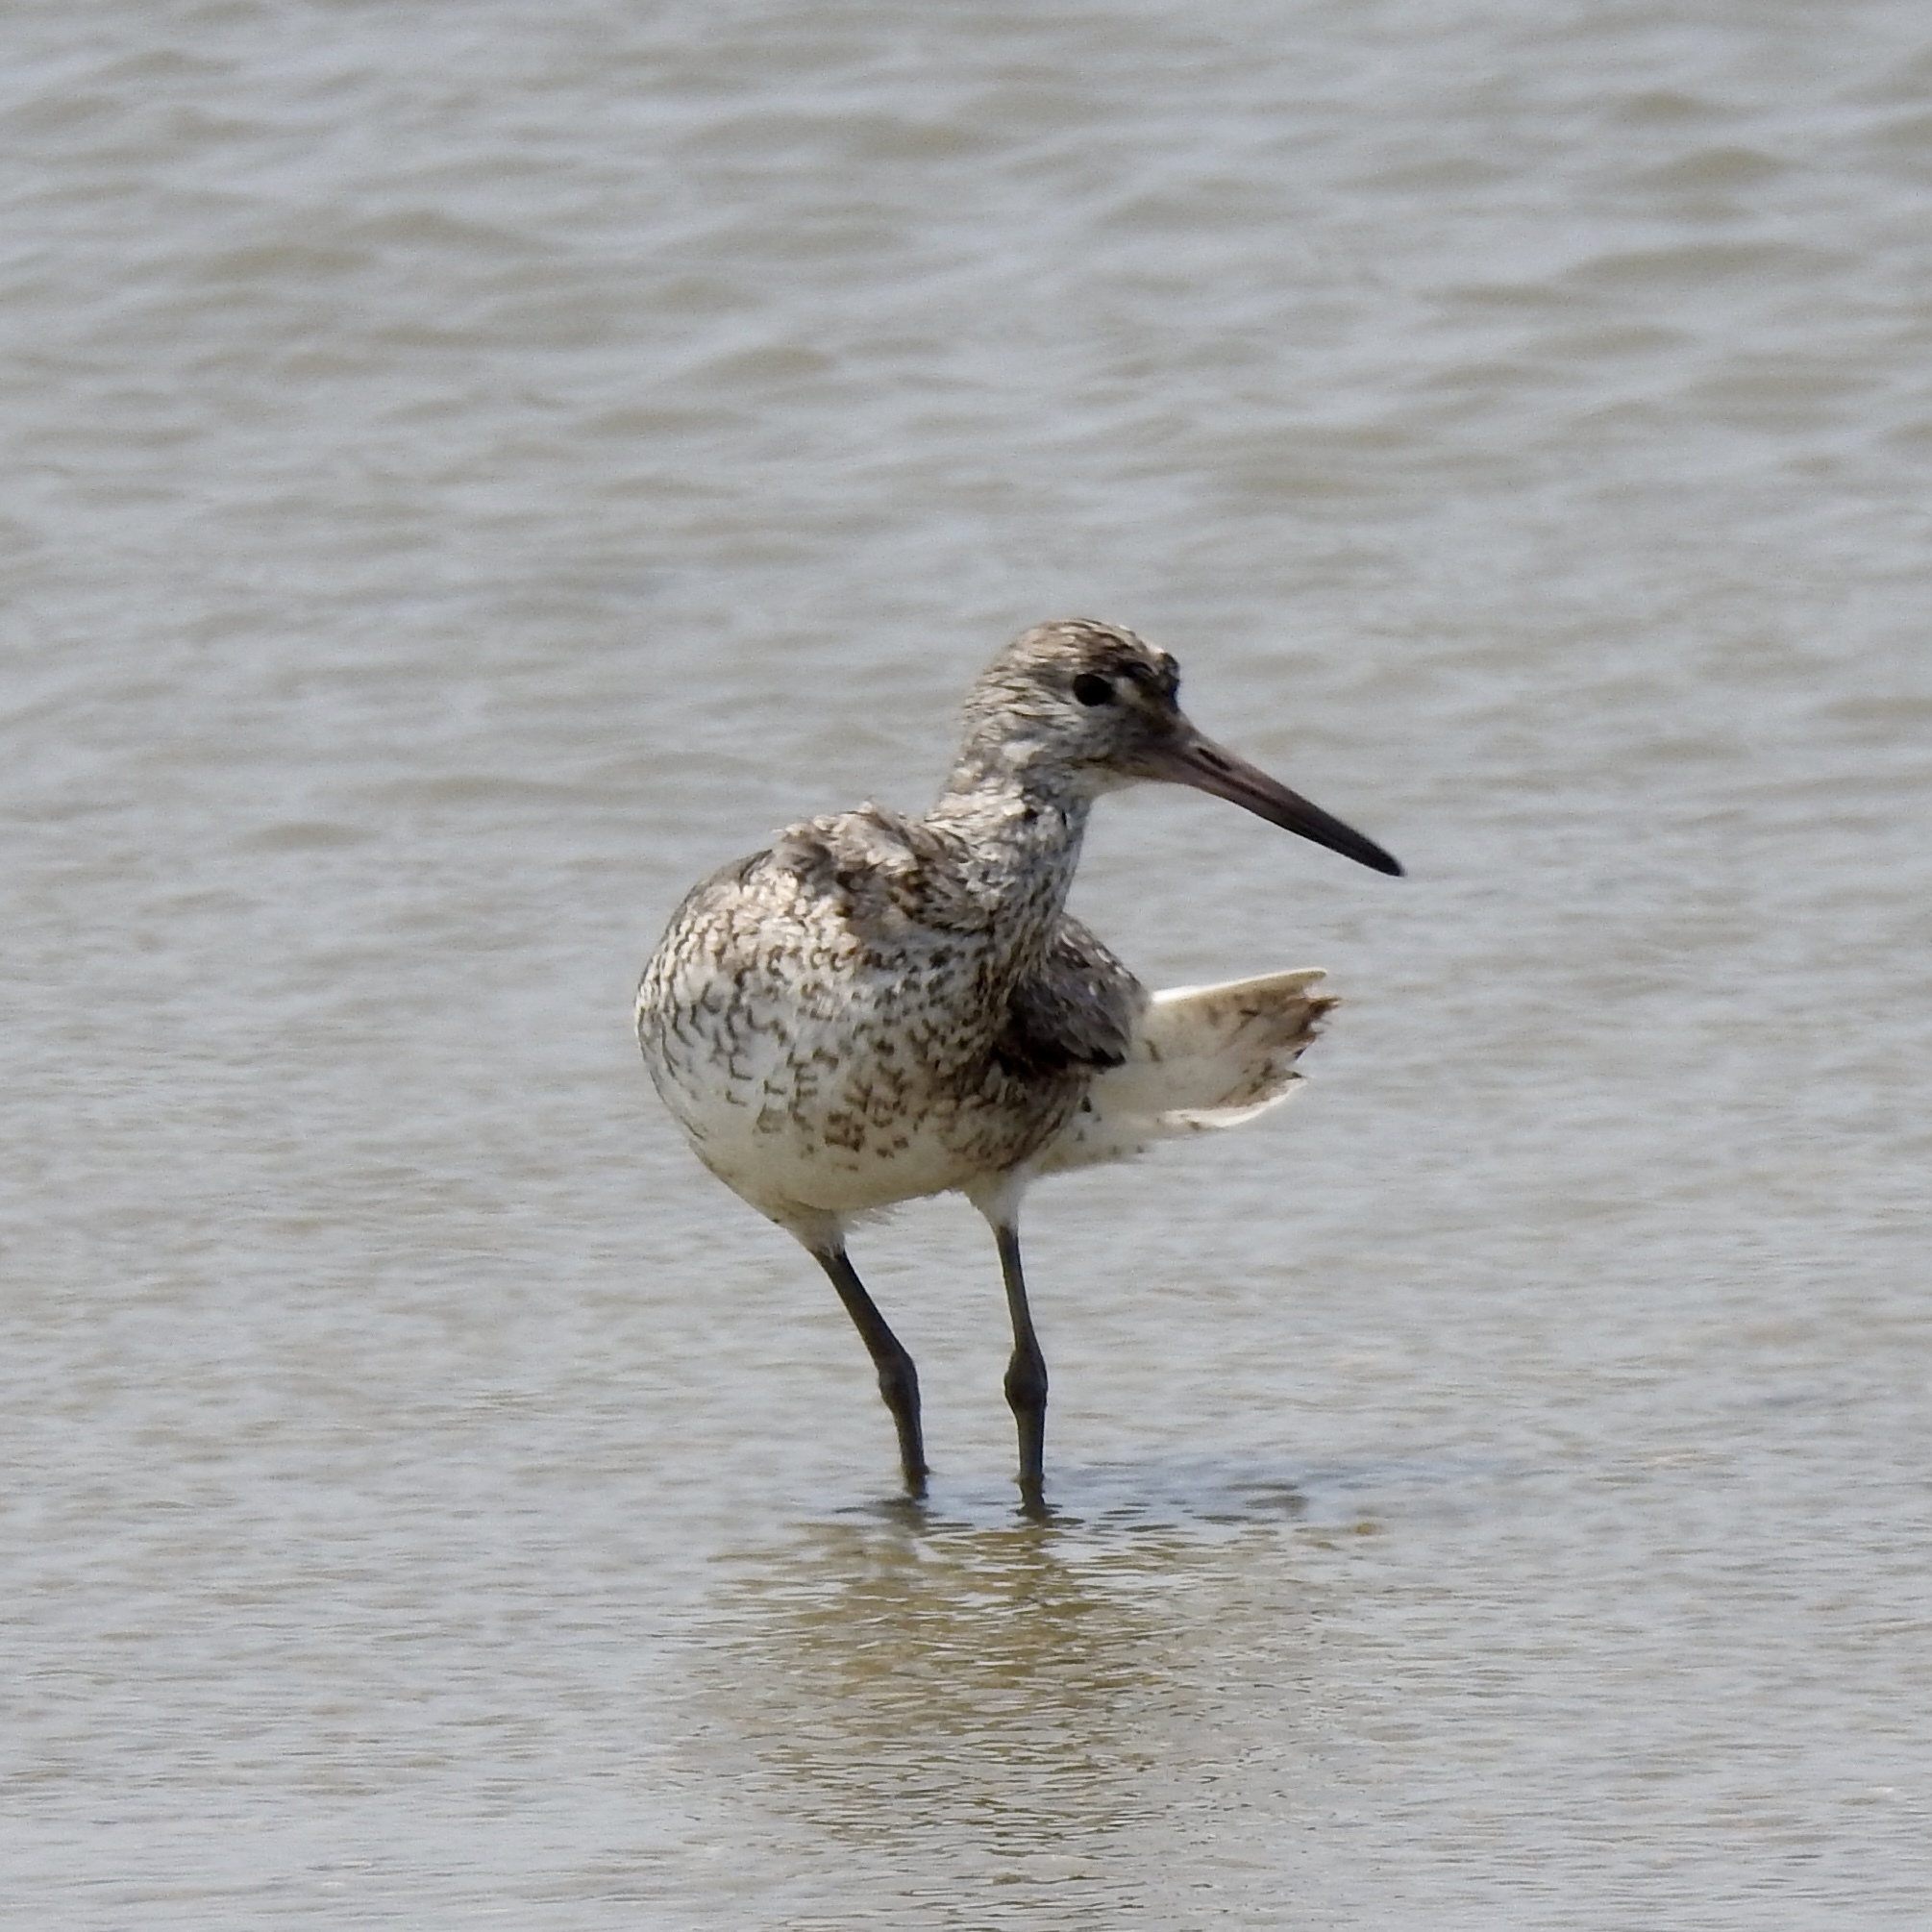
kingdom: Animalia
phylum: Chordata
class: Aves
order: Charadriiformes
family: Scolopacidae
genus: Tringa
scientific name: Tringa semipalmata
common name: Willet
